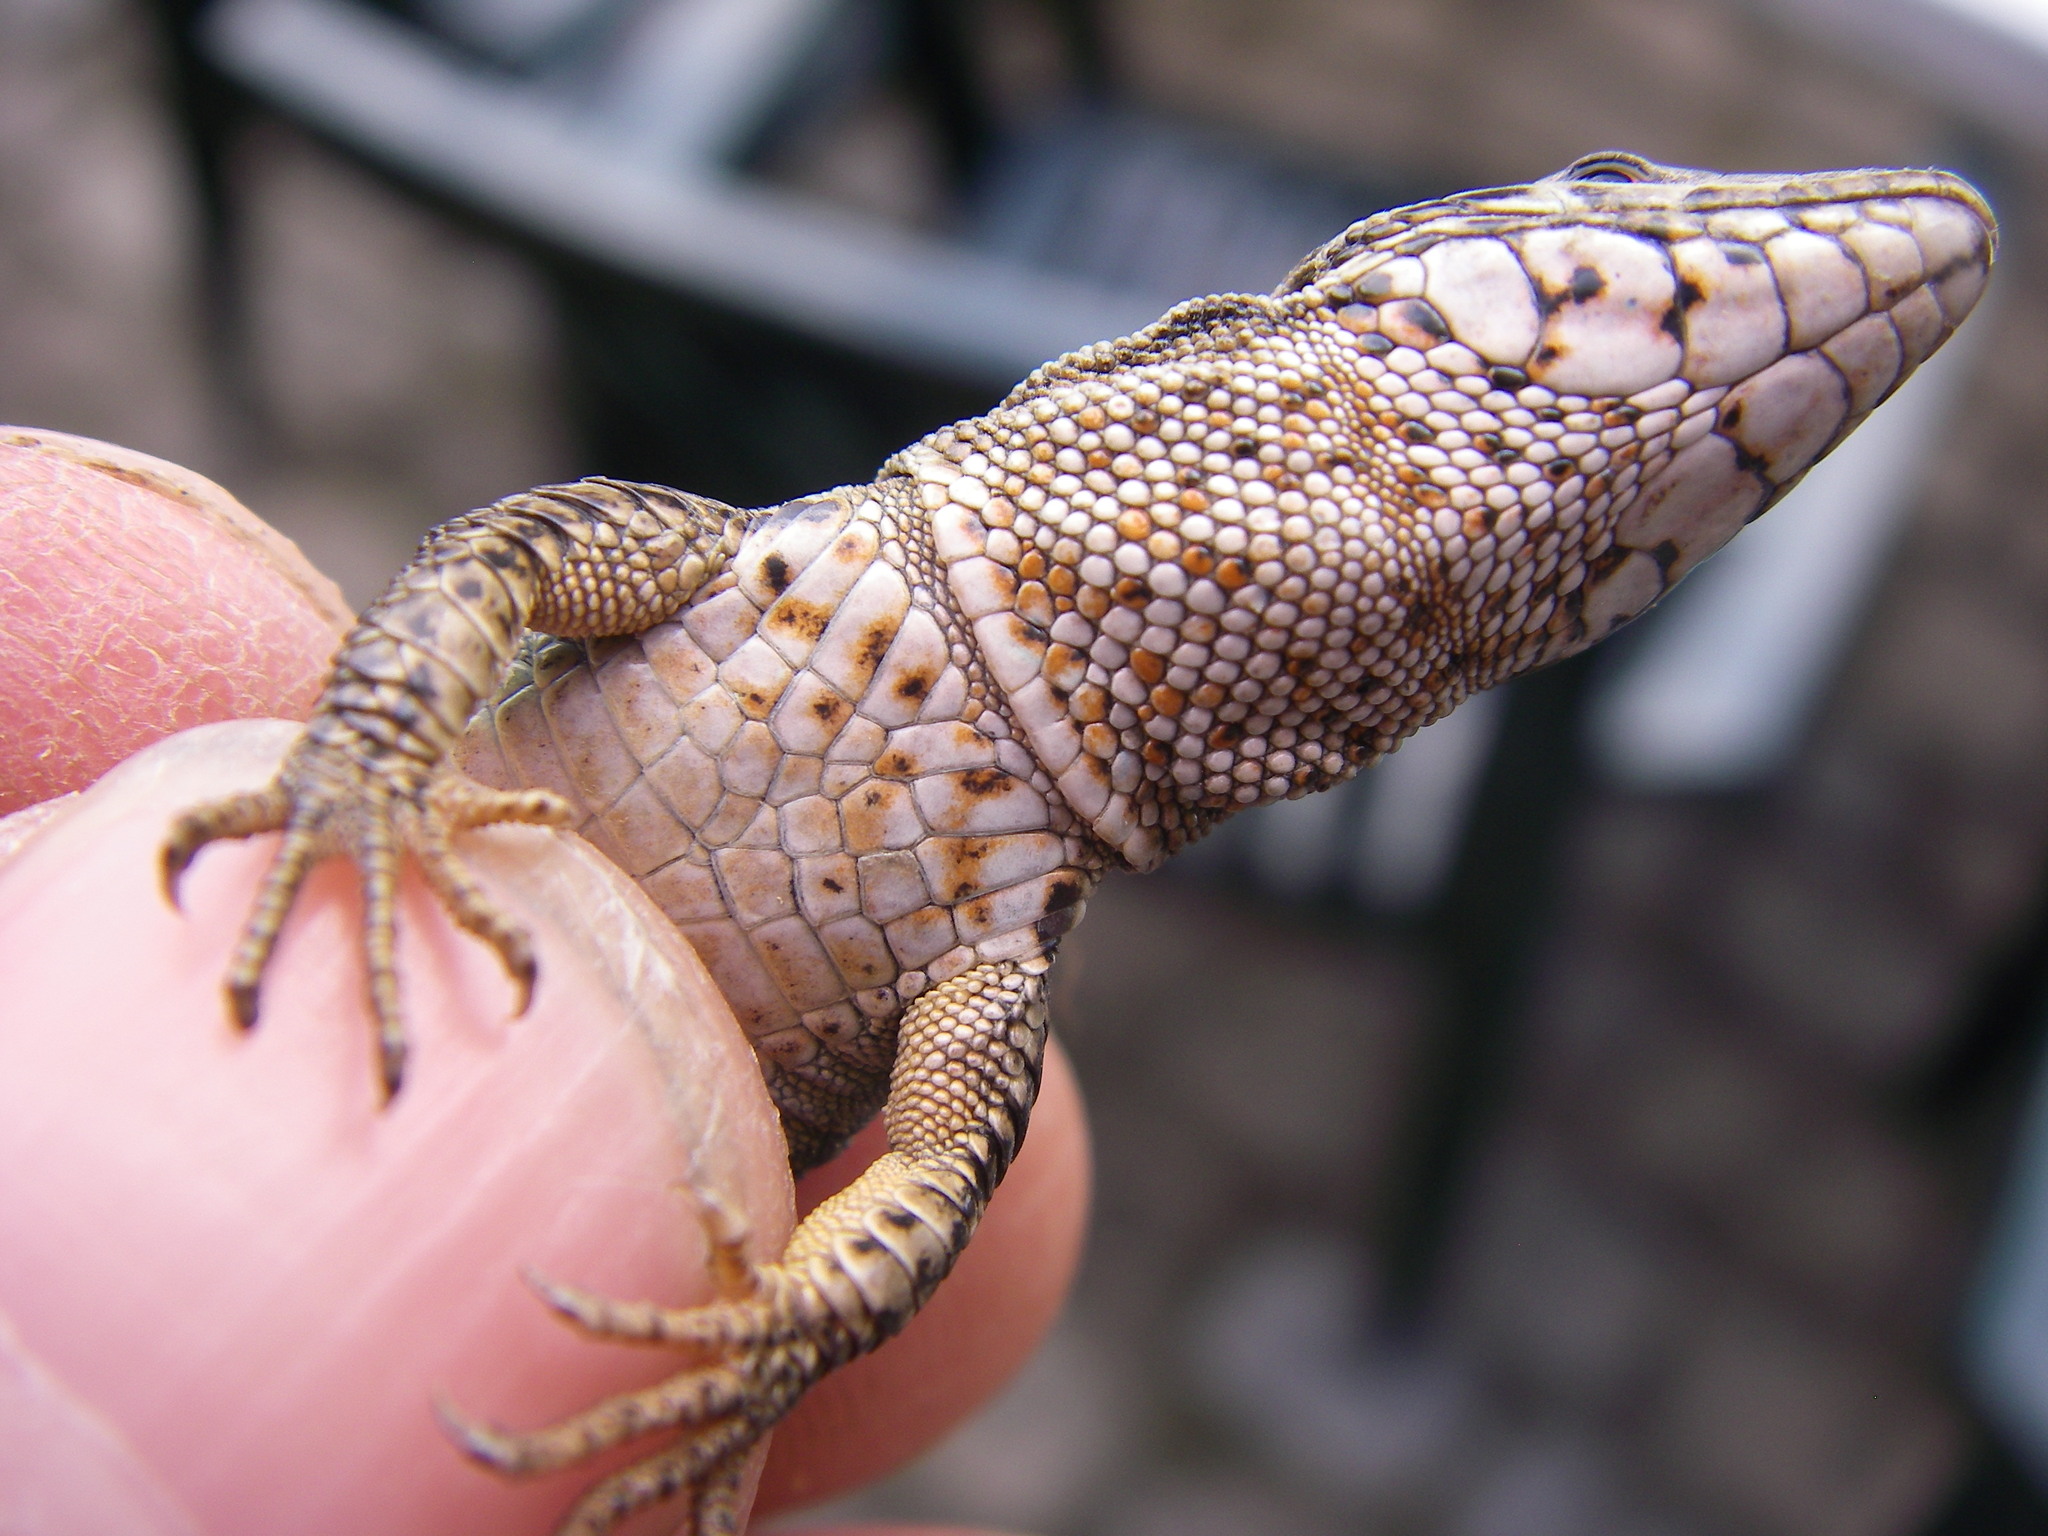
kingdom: Animalia
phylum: Chordata
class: Squamata
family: Lacertidae
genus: Podarcis
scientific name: Podarcis muralis
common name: Common wall lizard
